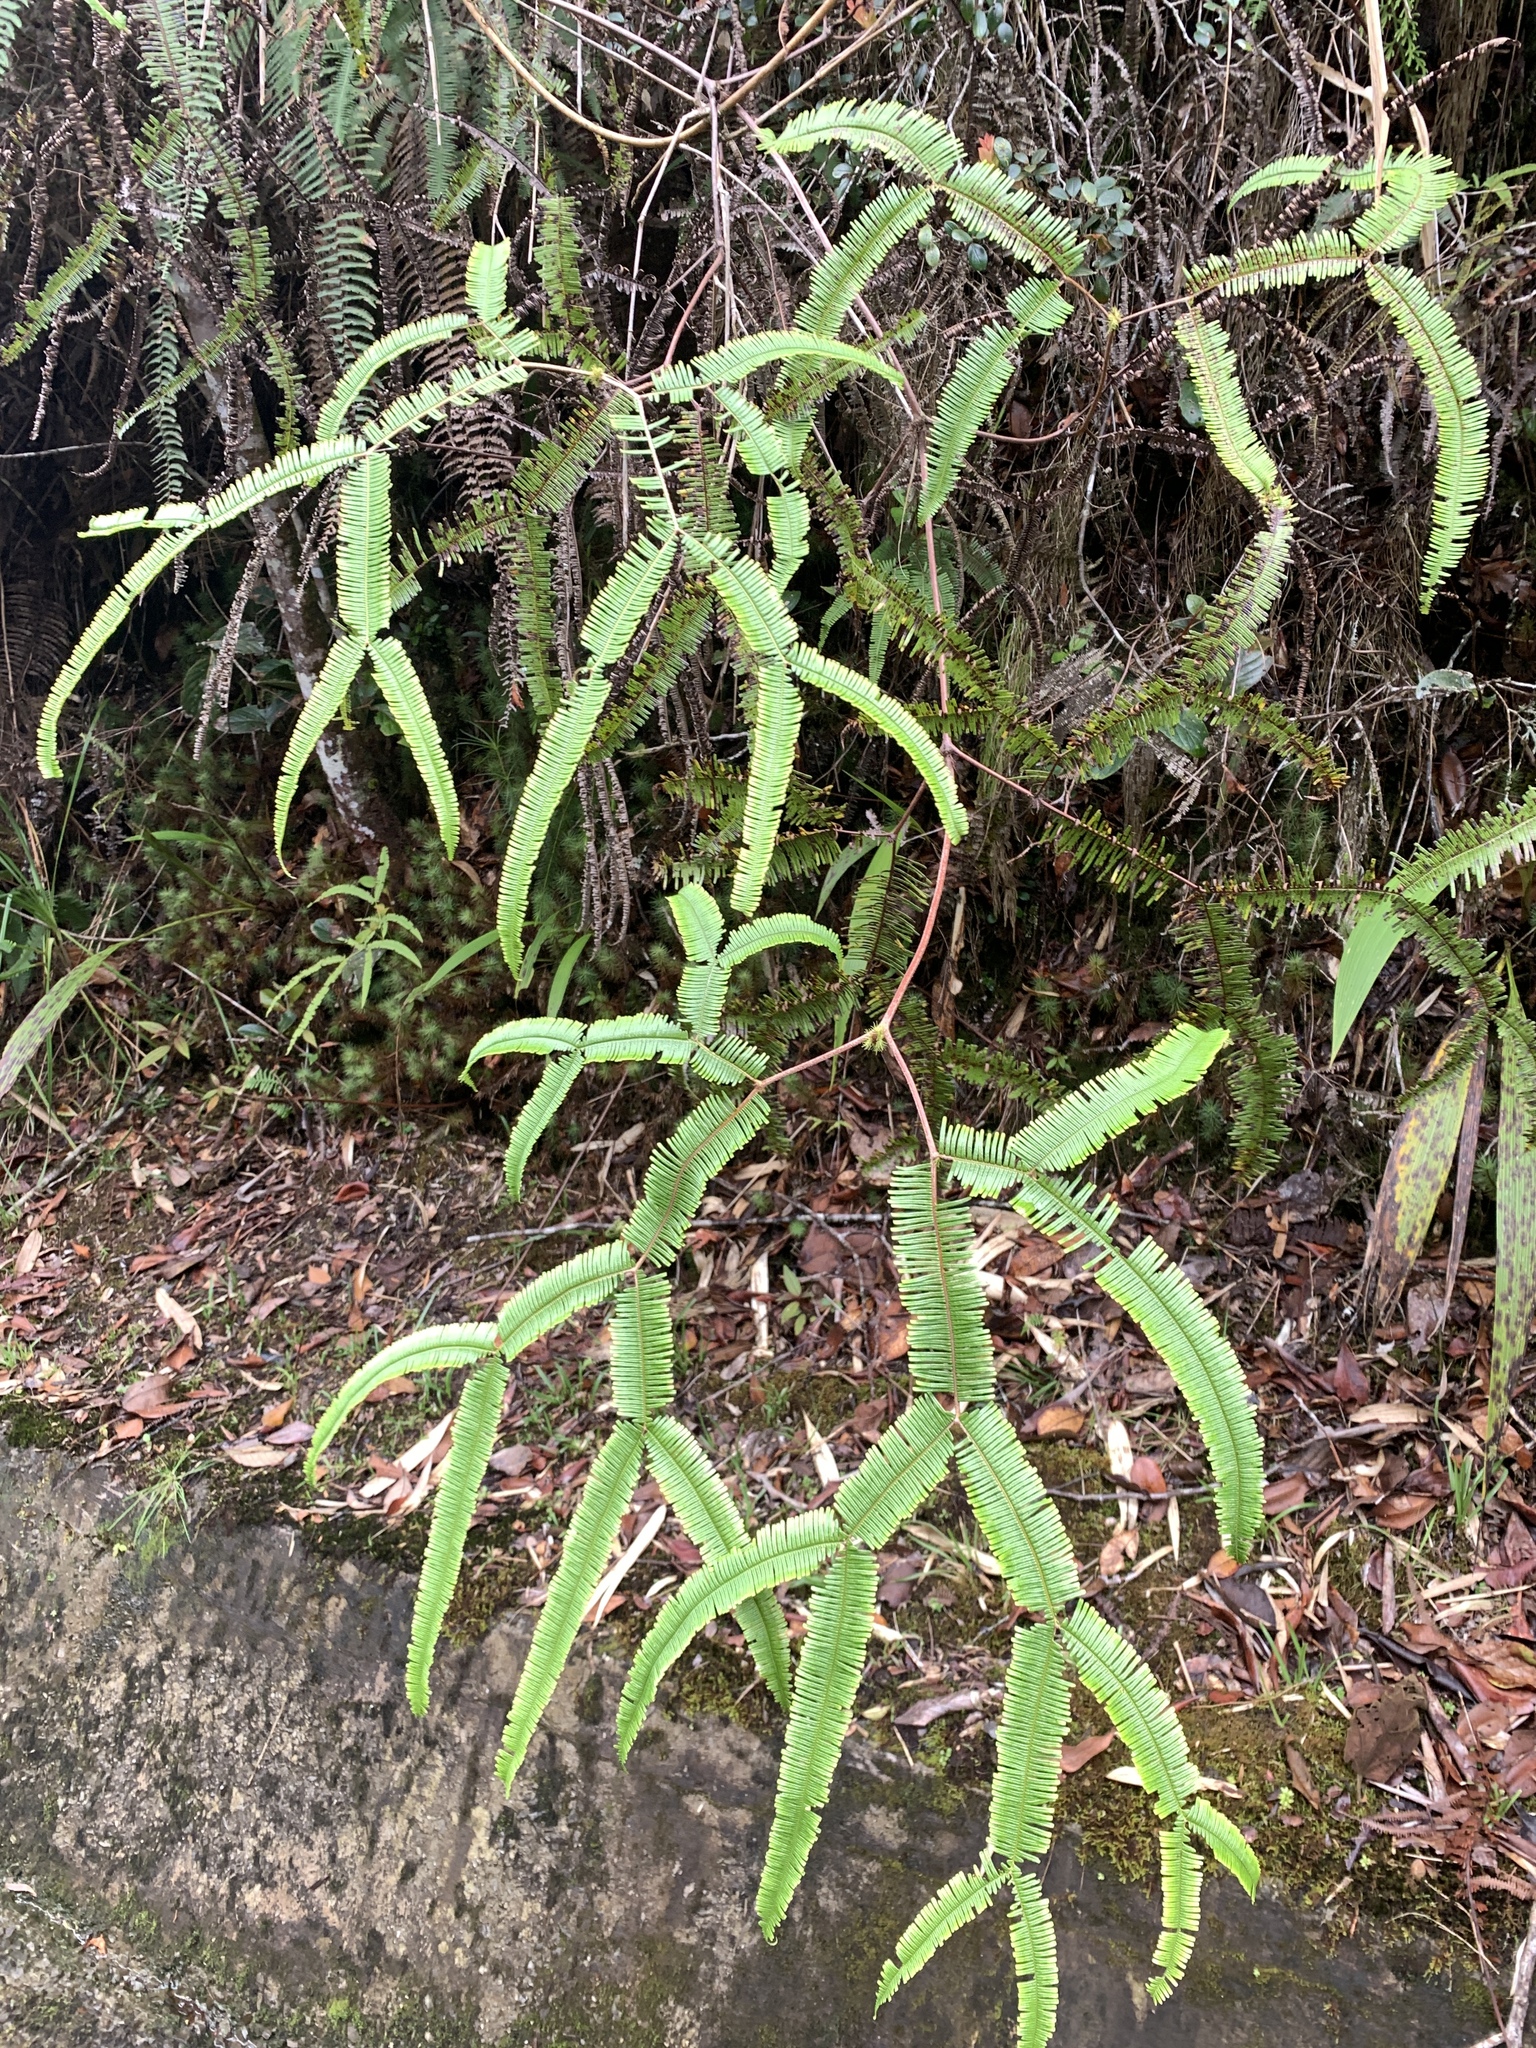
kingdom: Plantae
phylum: Tracheophyta
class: Polypodiopsida
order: Gleicheniales
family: Gleicheniaceae
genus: Sticherus
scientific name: Sticherus truncatus
